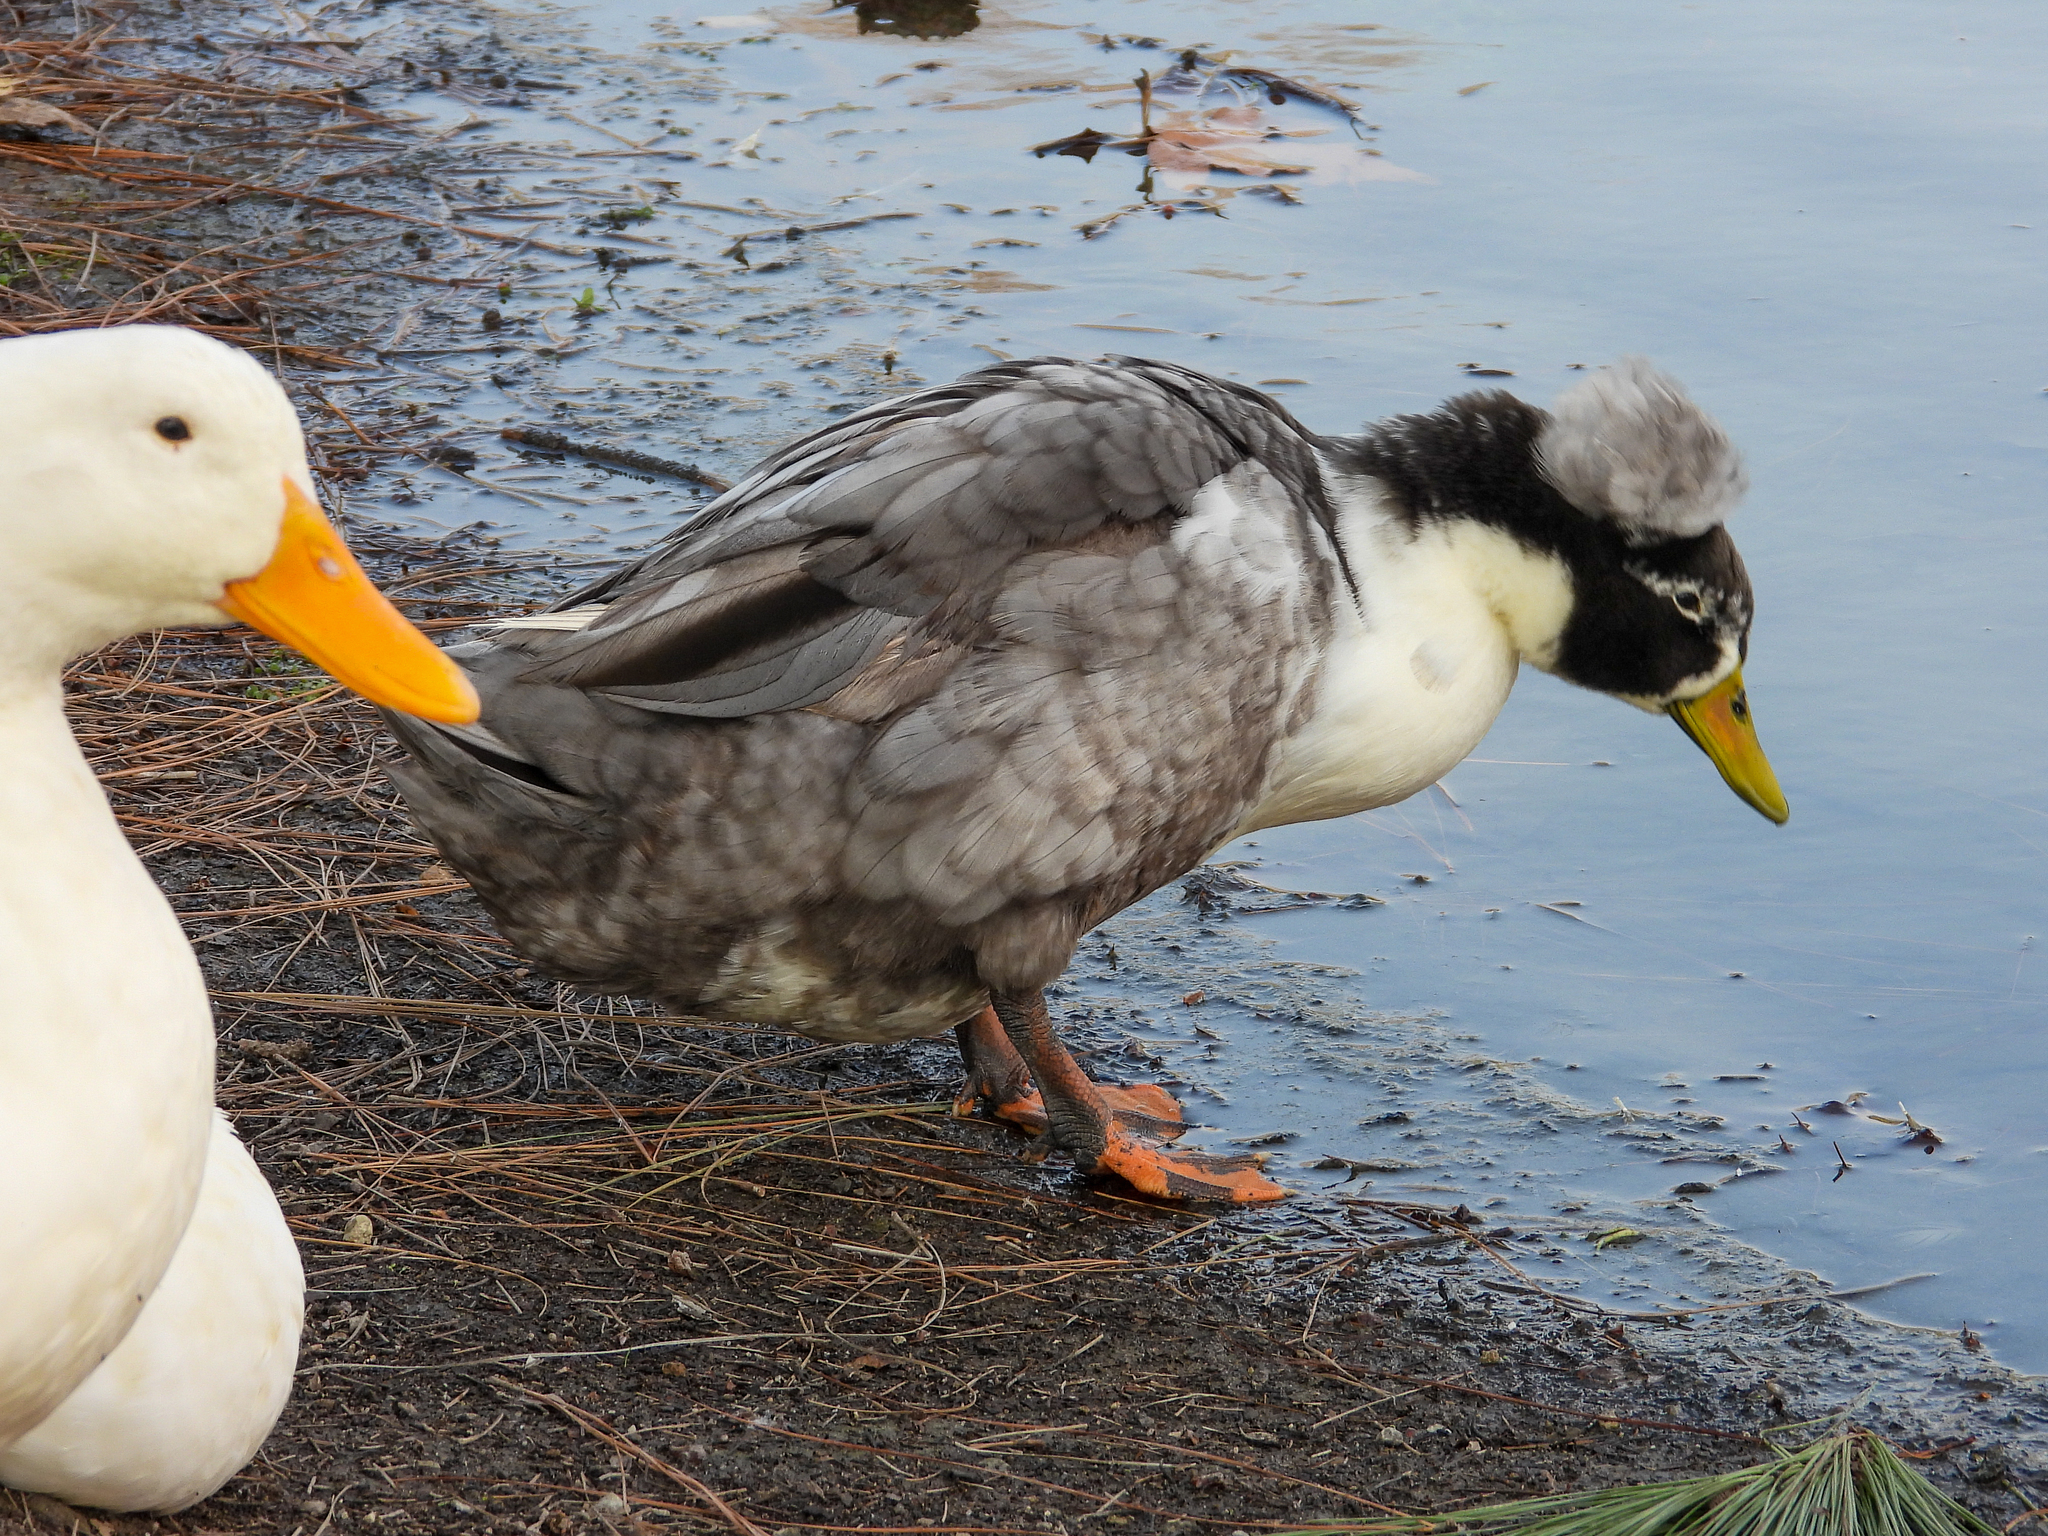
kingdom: Animalia
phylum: Chordata
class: Aves
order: Anseriformes
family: Anatidae
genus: Anas
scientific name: Anas platyrhynchos
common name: Mallard
